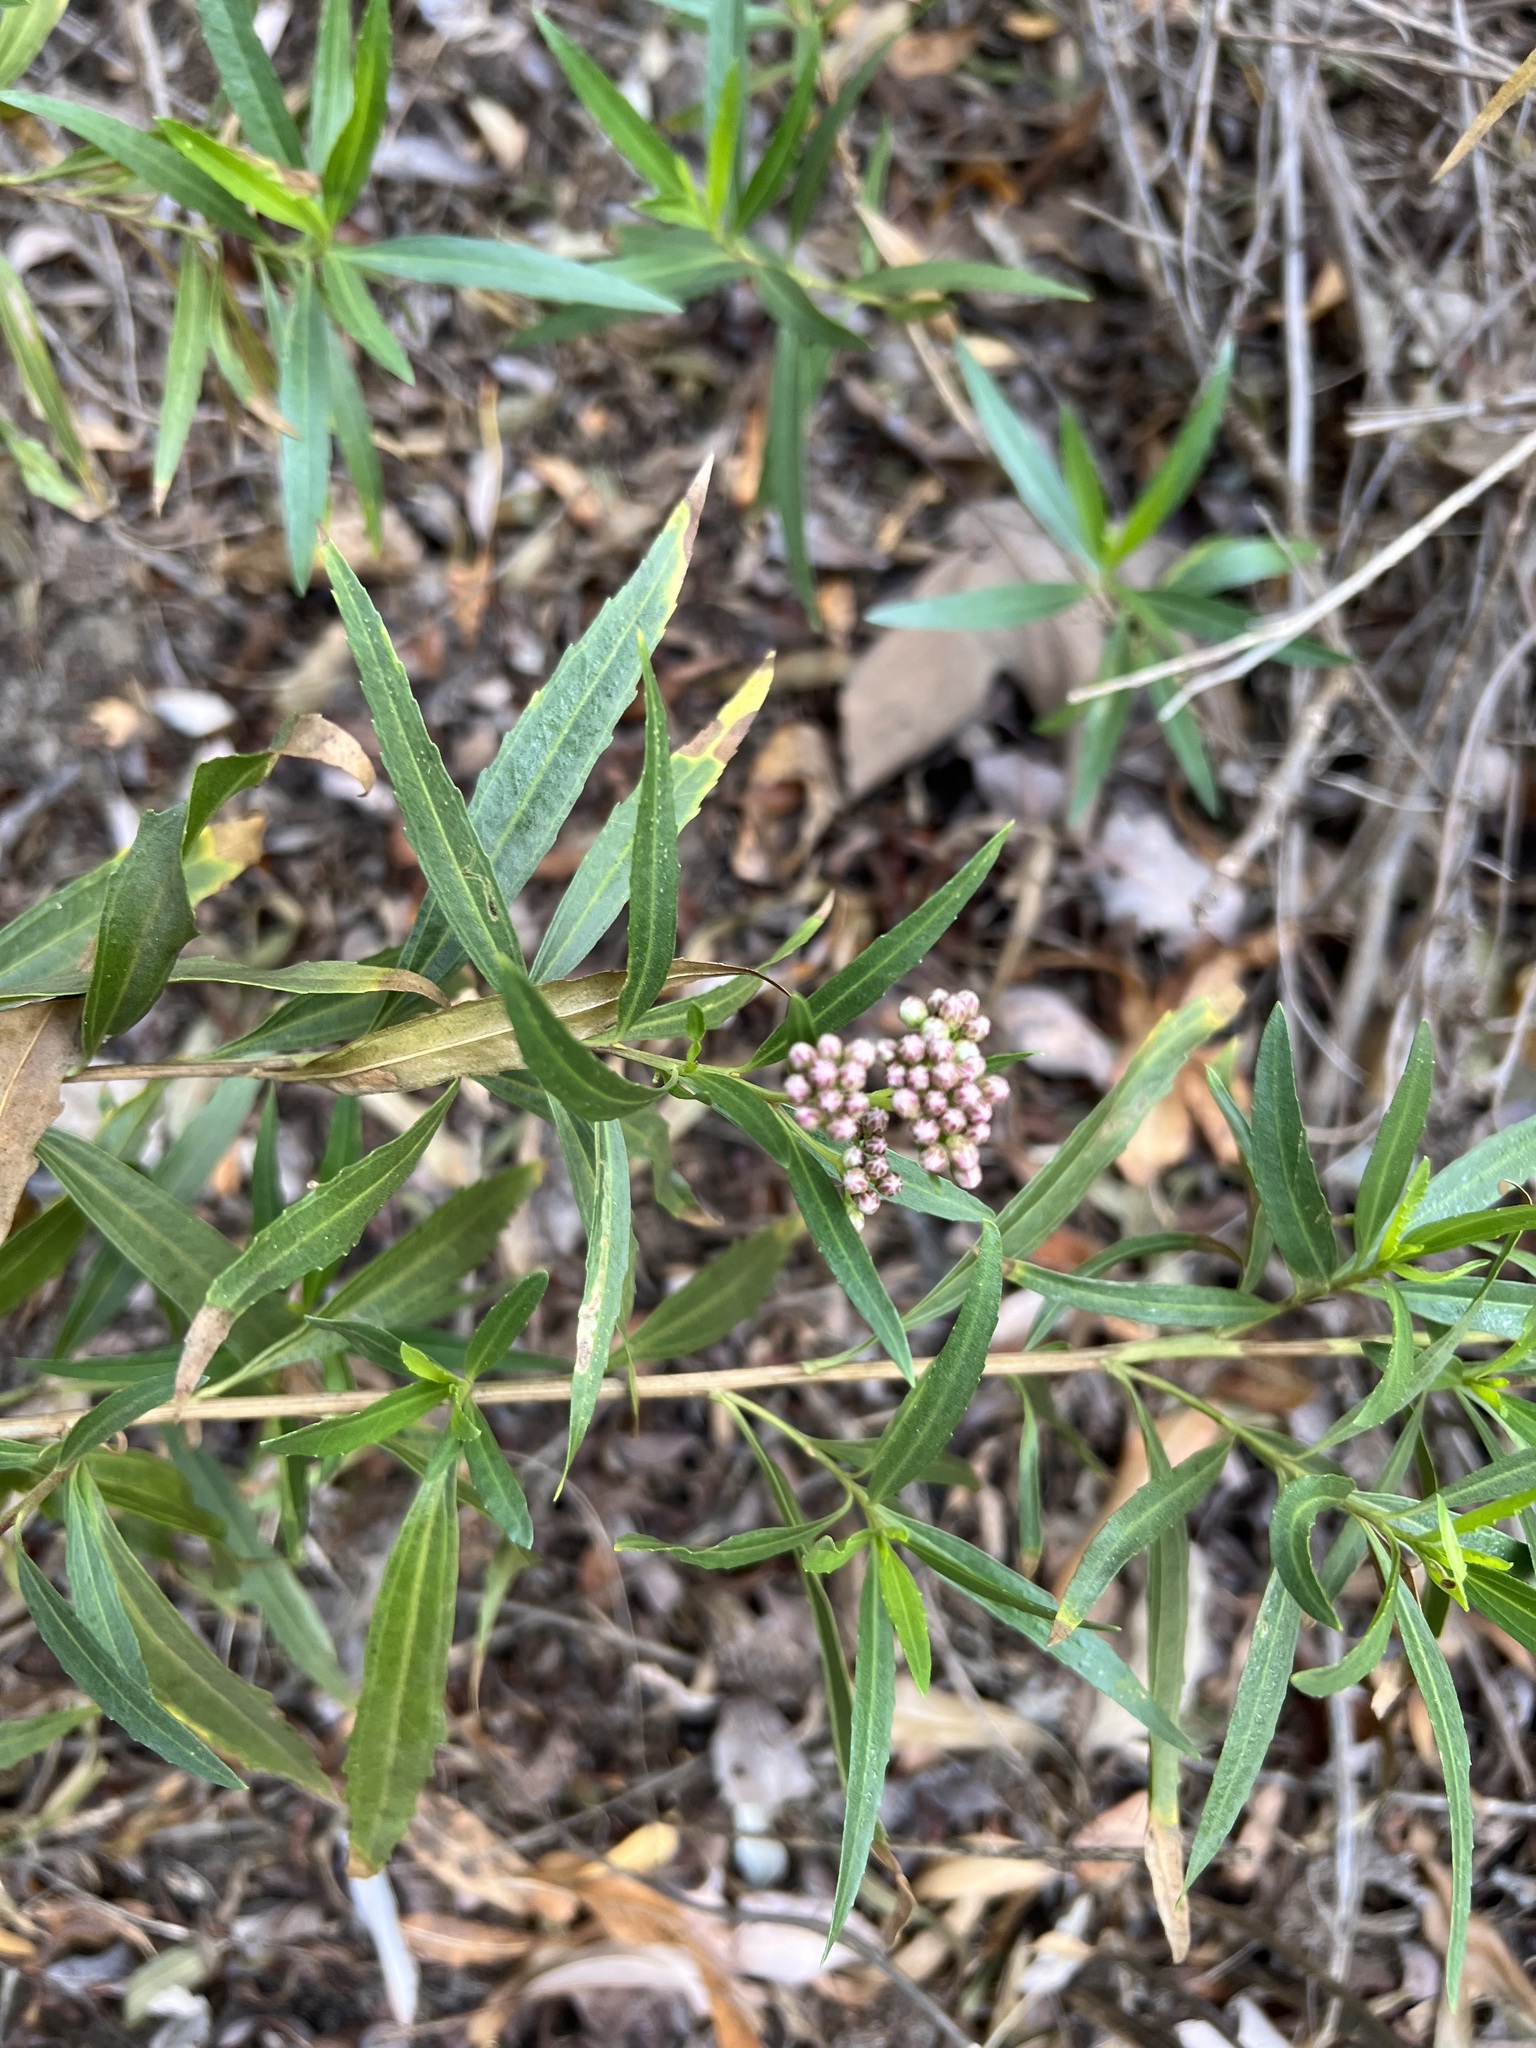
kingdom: Plantae
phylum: Tracheophyta
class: Magnoliopsida
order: Asterales
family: Asteraceae
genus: Baccharis
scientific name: Baccharis salicifolia
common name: Sticky baccharis
